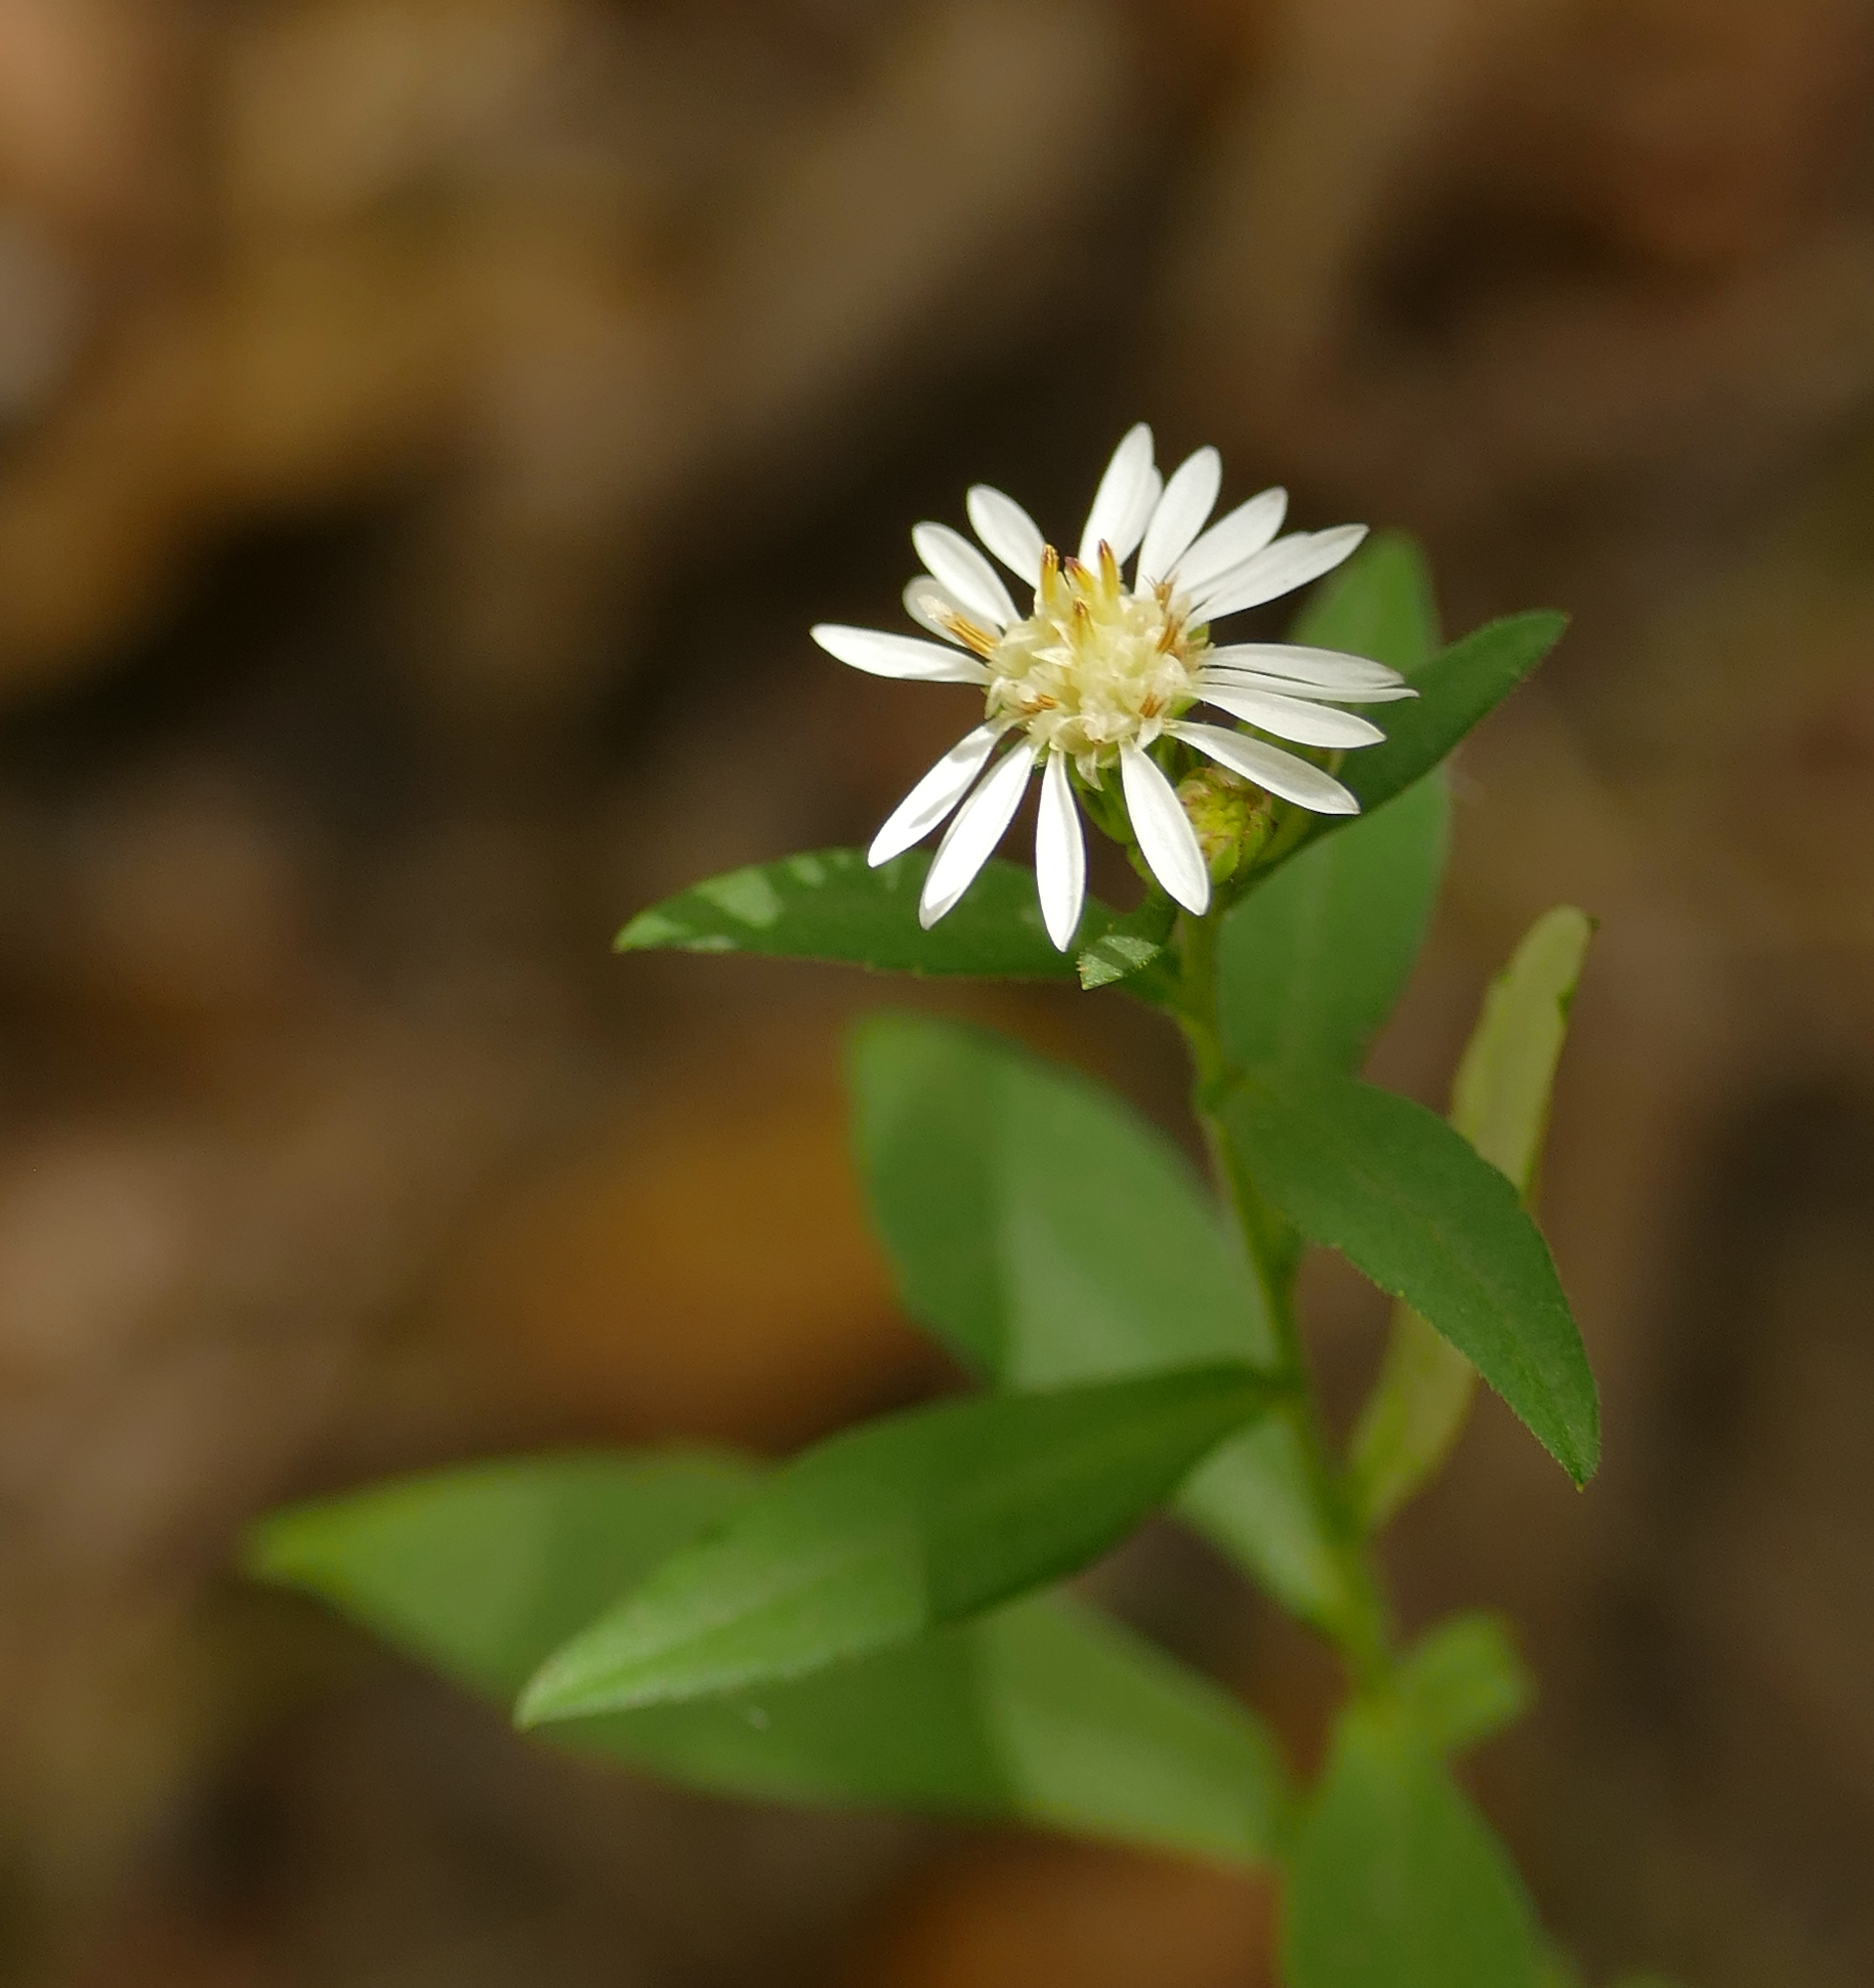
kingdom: Plantae
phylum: Tracheophyta
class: Magnoliopsida
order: Asterales
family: Asteraceae
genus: Symphyotrichum
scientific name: Symphyotrichum lanceolatum
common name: Panicled aster
